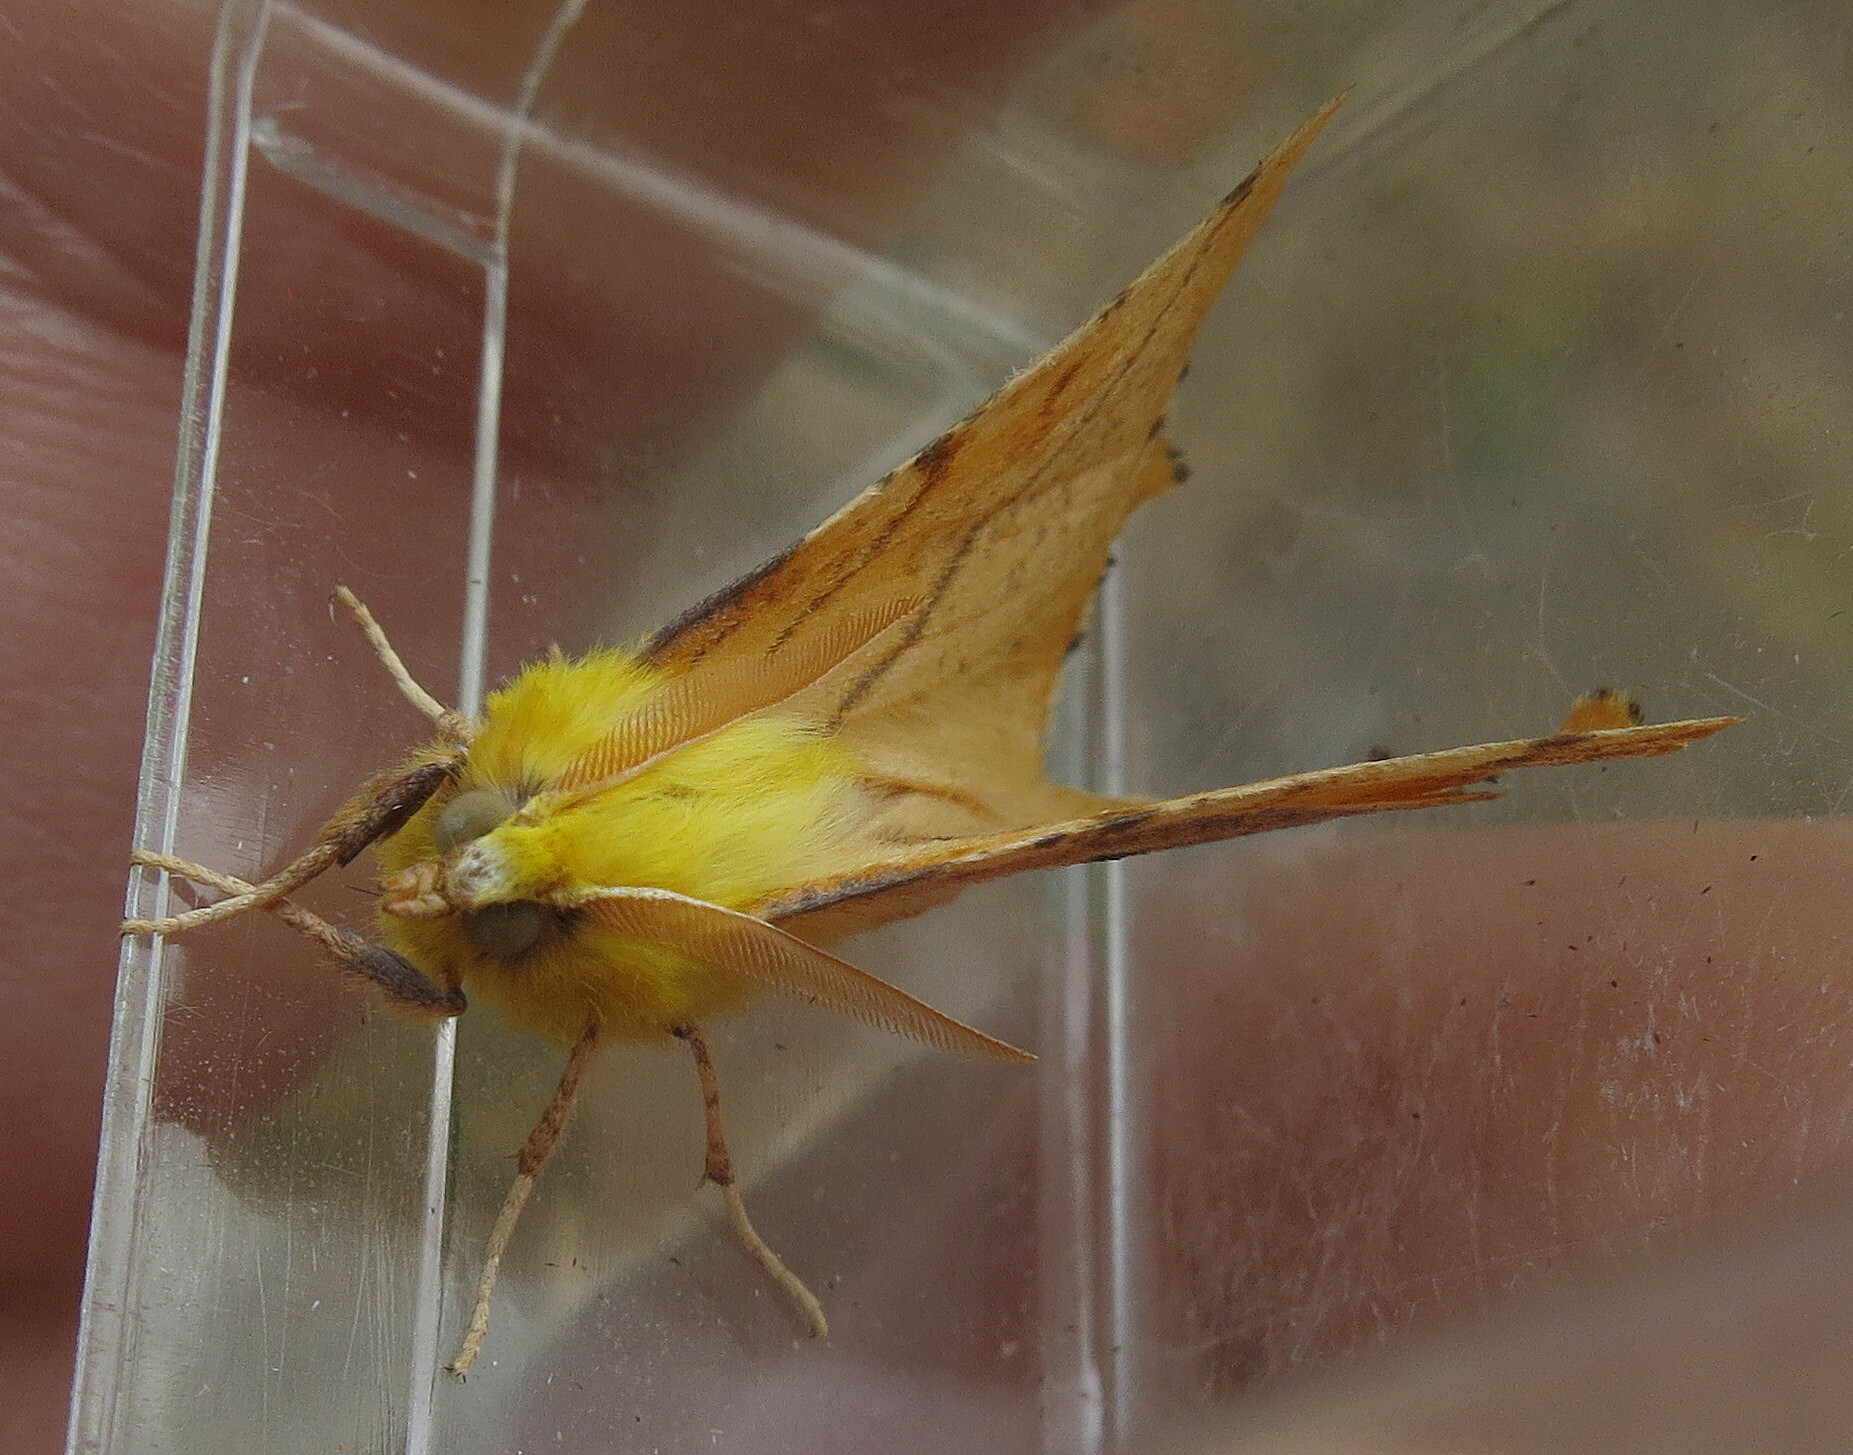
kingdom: Animalia
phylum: Arthropoda
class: Insecta
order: Lepidoptera
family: Geometridae
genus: Ennomos
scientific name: Ennomos alniaria
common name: Canary-shouldered thorn
